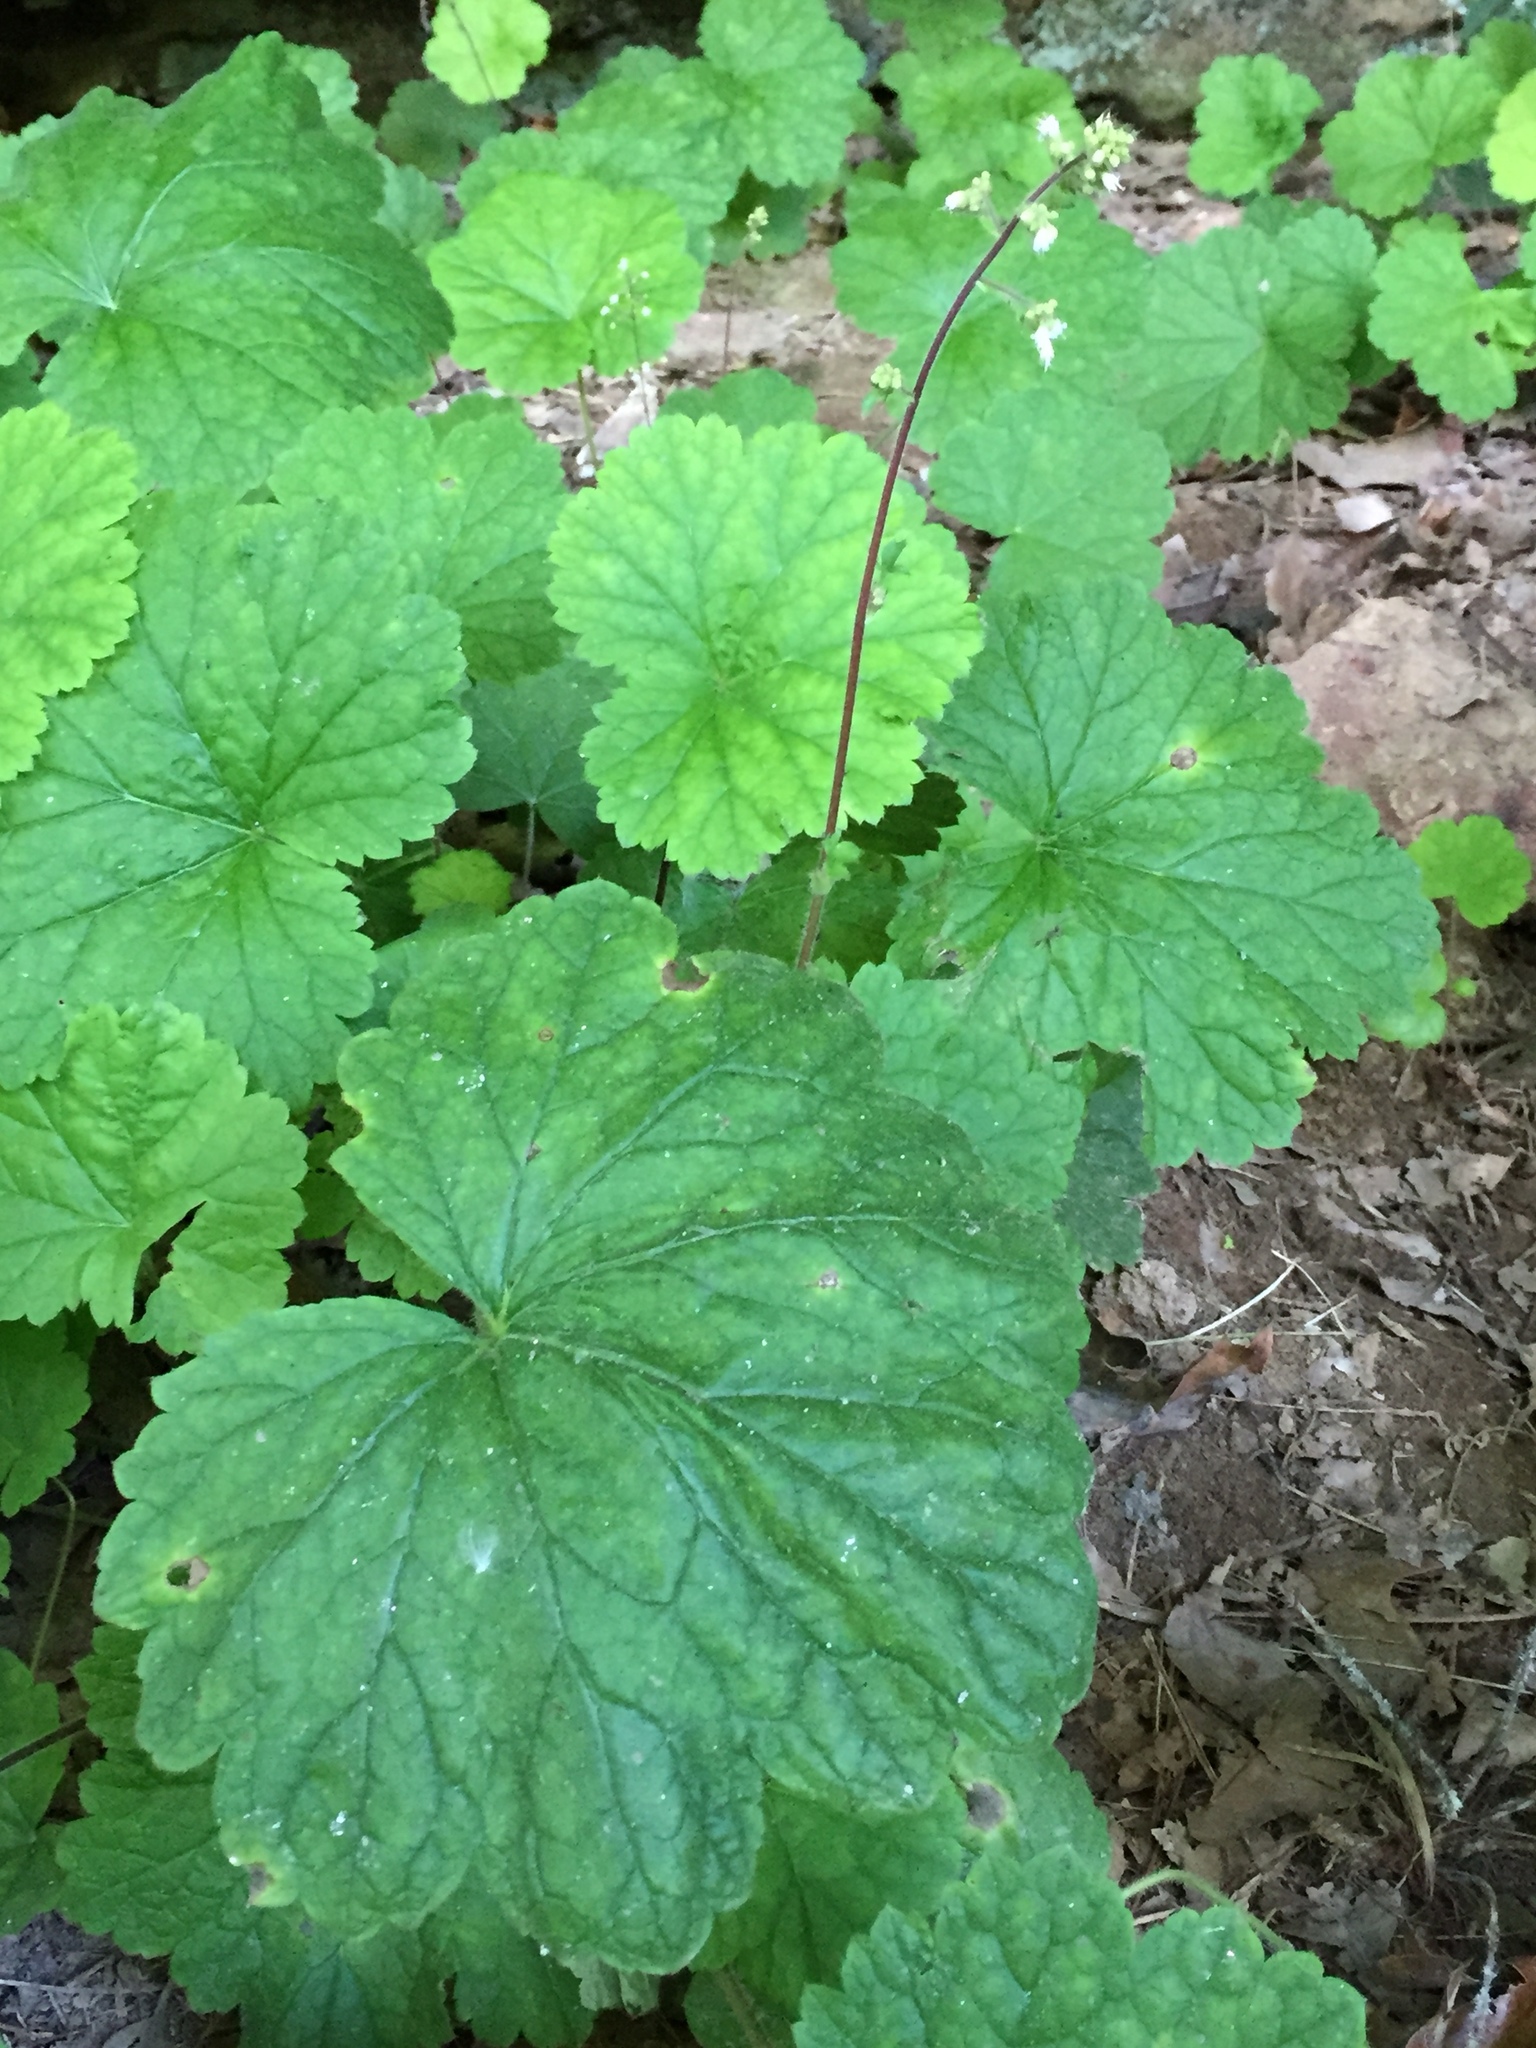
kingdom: Plantae
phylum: Tracheophyta
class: Magnoliopsida
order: Saxifragales
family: Saxifragaceae
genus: Heuchera
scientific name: Heuchera missouriensis
